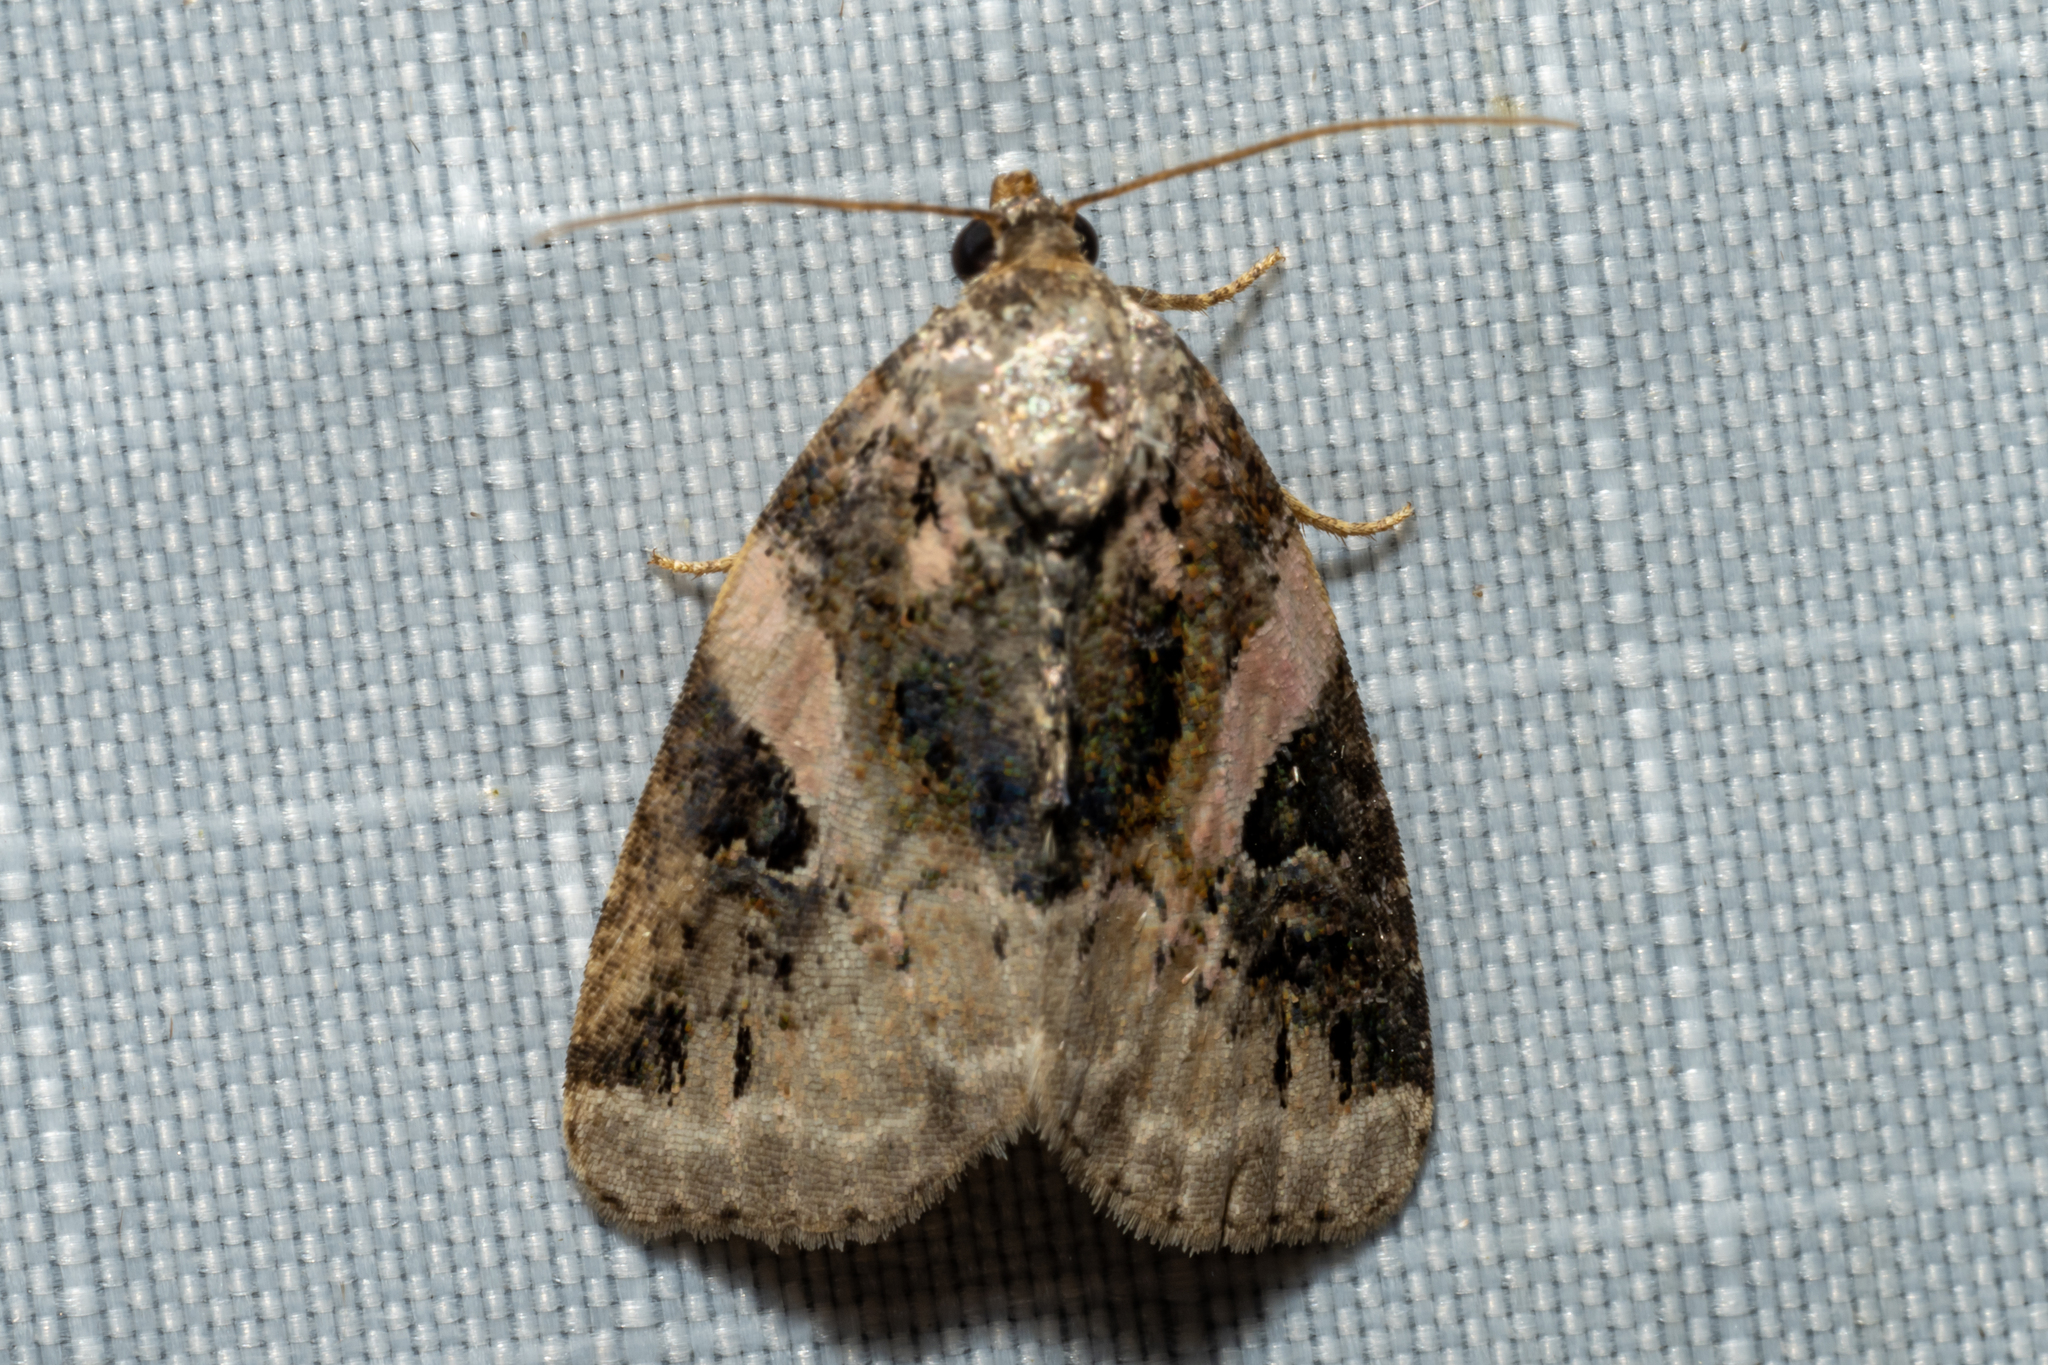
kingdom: Animalia
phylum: Arthropoda
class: Insecta
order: Lepidoptera
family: Noctuidae
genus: Pseudeustrotia
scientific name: Pseudeustrotia carneola
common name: Pink-barred lithacodia moth
